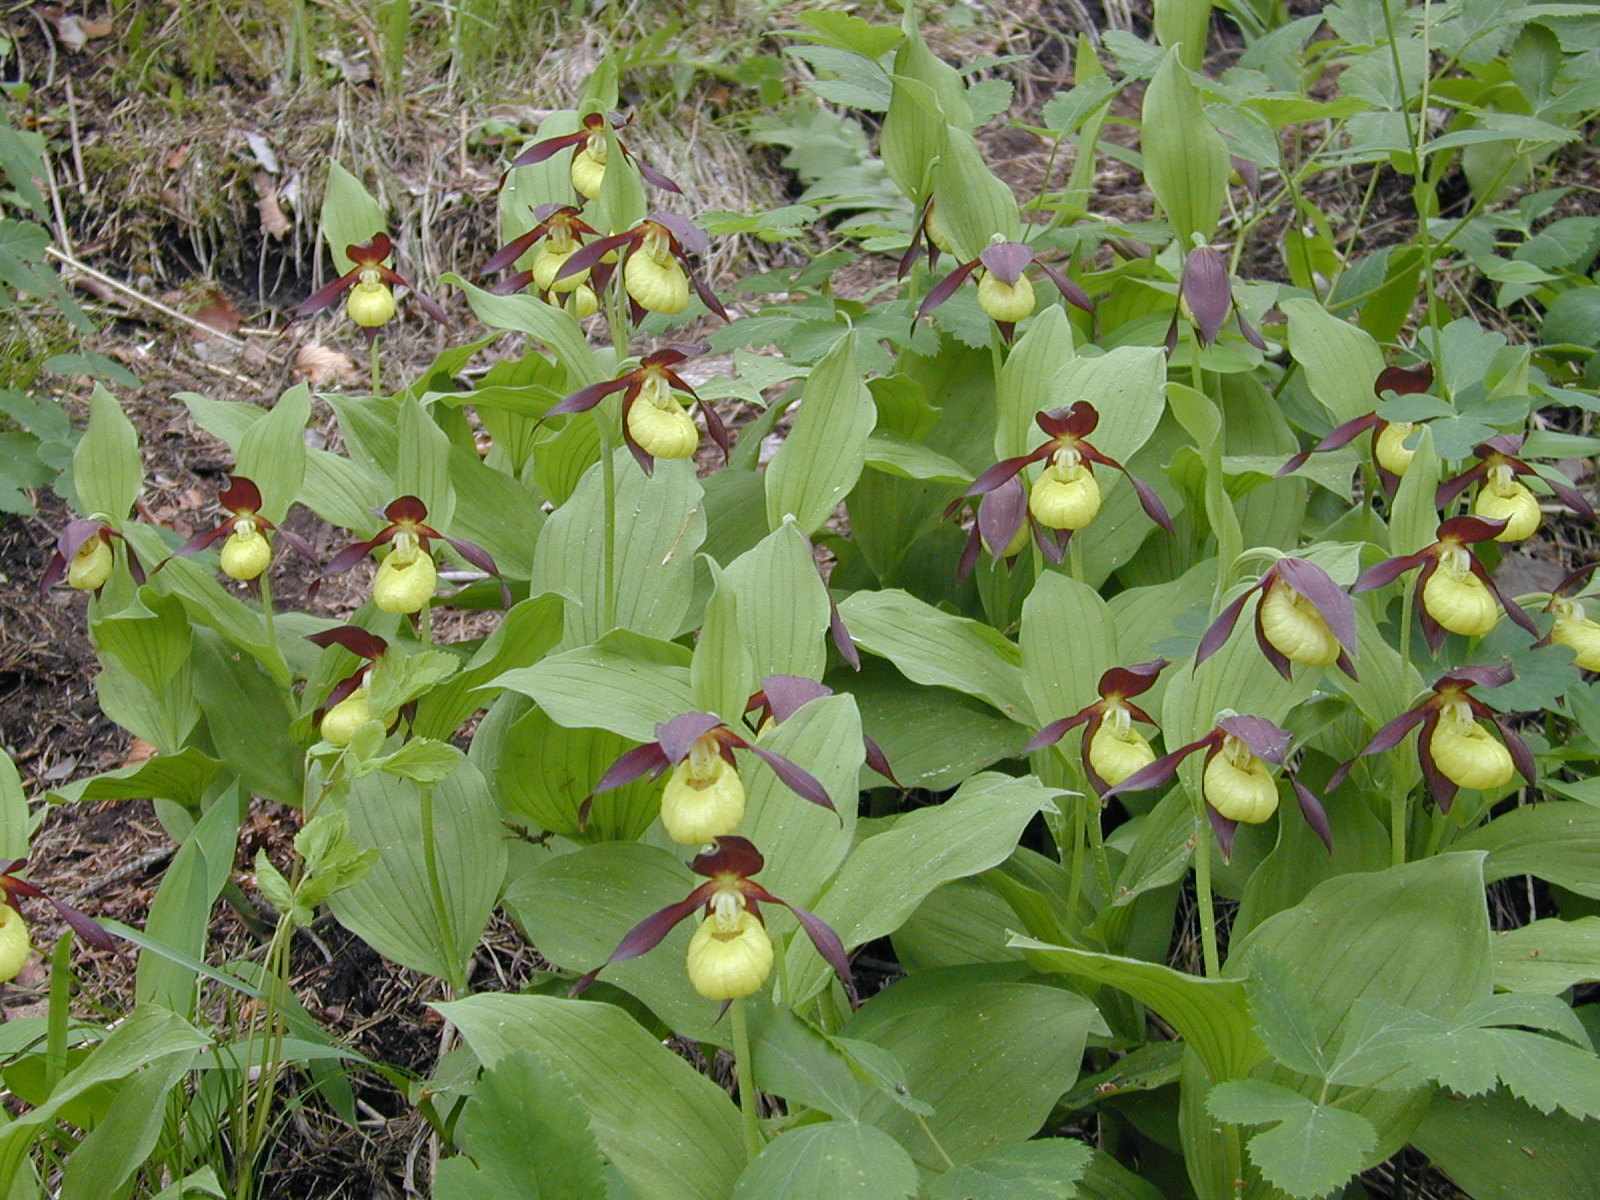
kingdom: Plantae
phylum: Tracheophyta
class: Liliopsida
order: Asparagales
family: Orchidaceae
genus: Cypripedium
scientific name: Cypripedium calceolus
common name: Lady's-slipper
